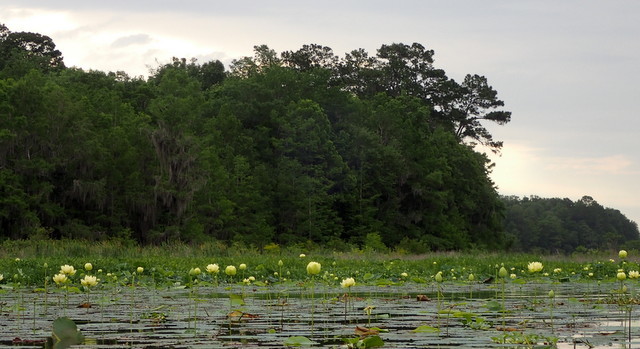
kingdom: Animalia
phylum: Chordata
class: Aves
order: Pelecaniformes
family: Ardeidae
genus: Egretta
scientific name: Egretta caerulea
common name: Little blue heron
